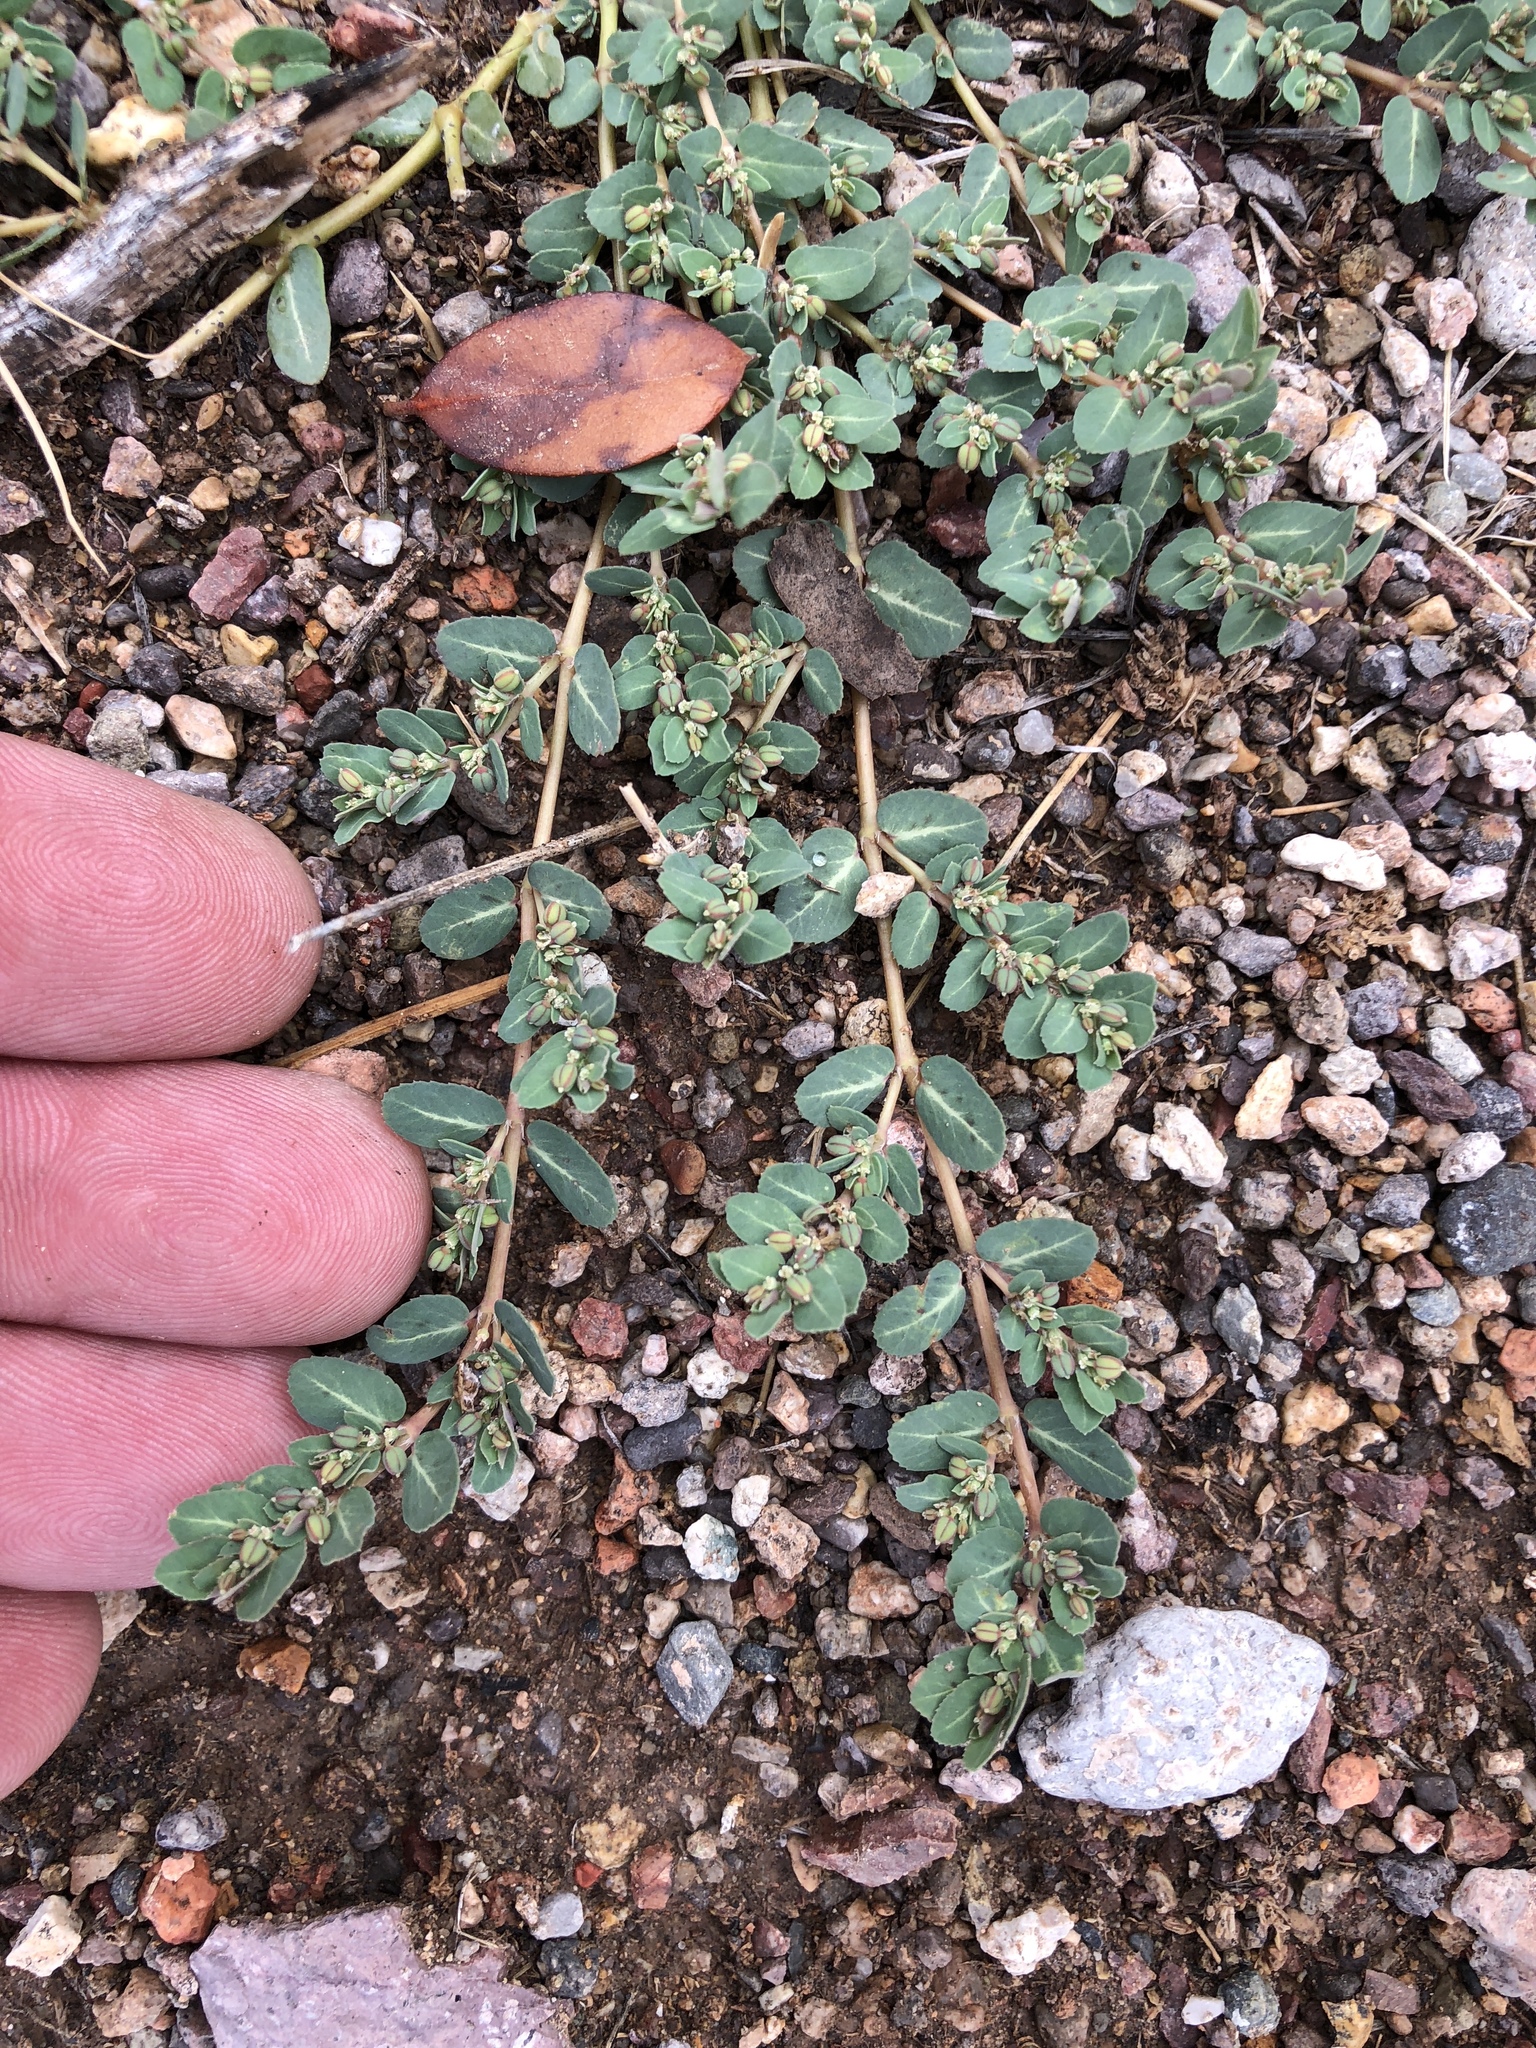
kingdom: Plantae
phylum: Tracheophyta
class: Magnoliopsida
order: Malpighiales
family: Euphorbiaceae
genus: Euphorbia
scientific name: Euphorbia abramsiana
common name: Abram's spurge
